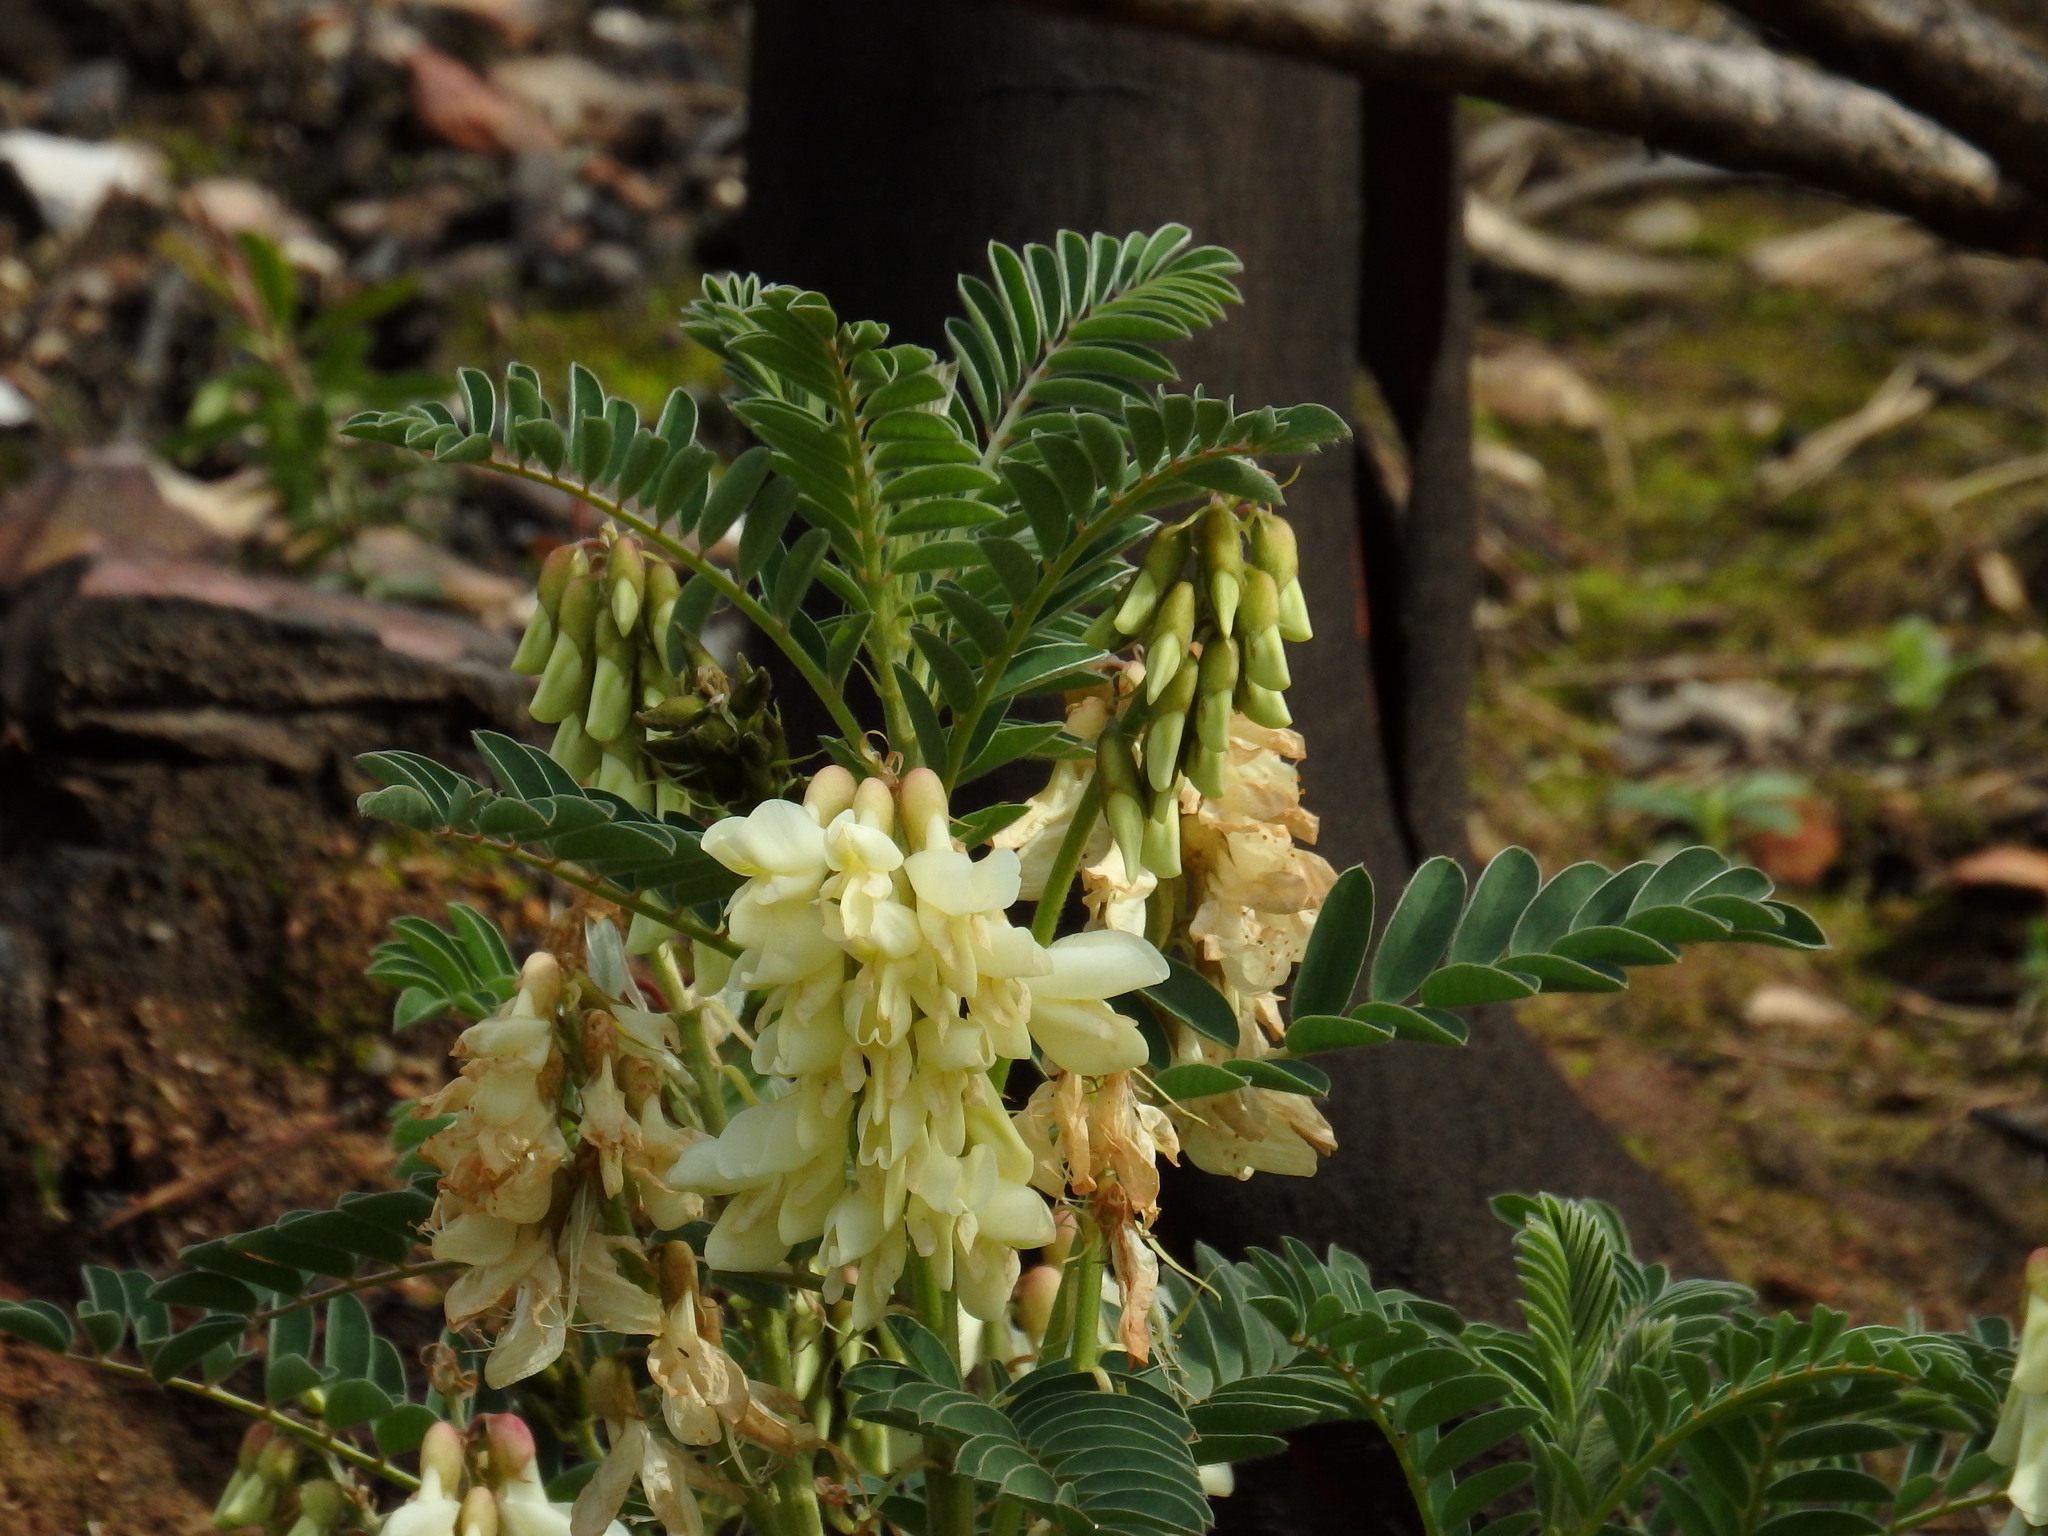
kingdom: Plantae
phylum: Tracheophyta
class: Magnoliopsida
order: Fabales
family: Fabaceae
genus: Erophaca
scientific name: Erophaca baetica
